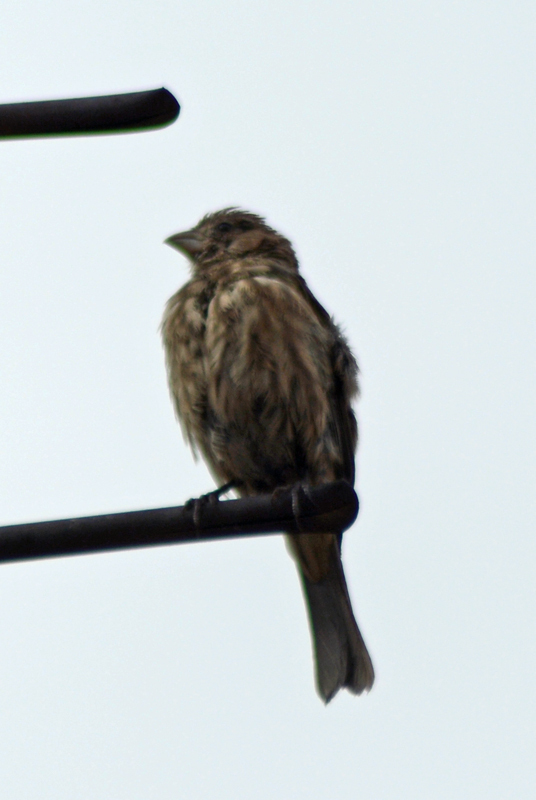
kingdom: Animalia
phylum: Chordata
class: Aves
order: Passeriformes
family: Fringillidae
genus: Haemorhous
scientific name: Haemorhous mexicanus
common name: House finch
